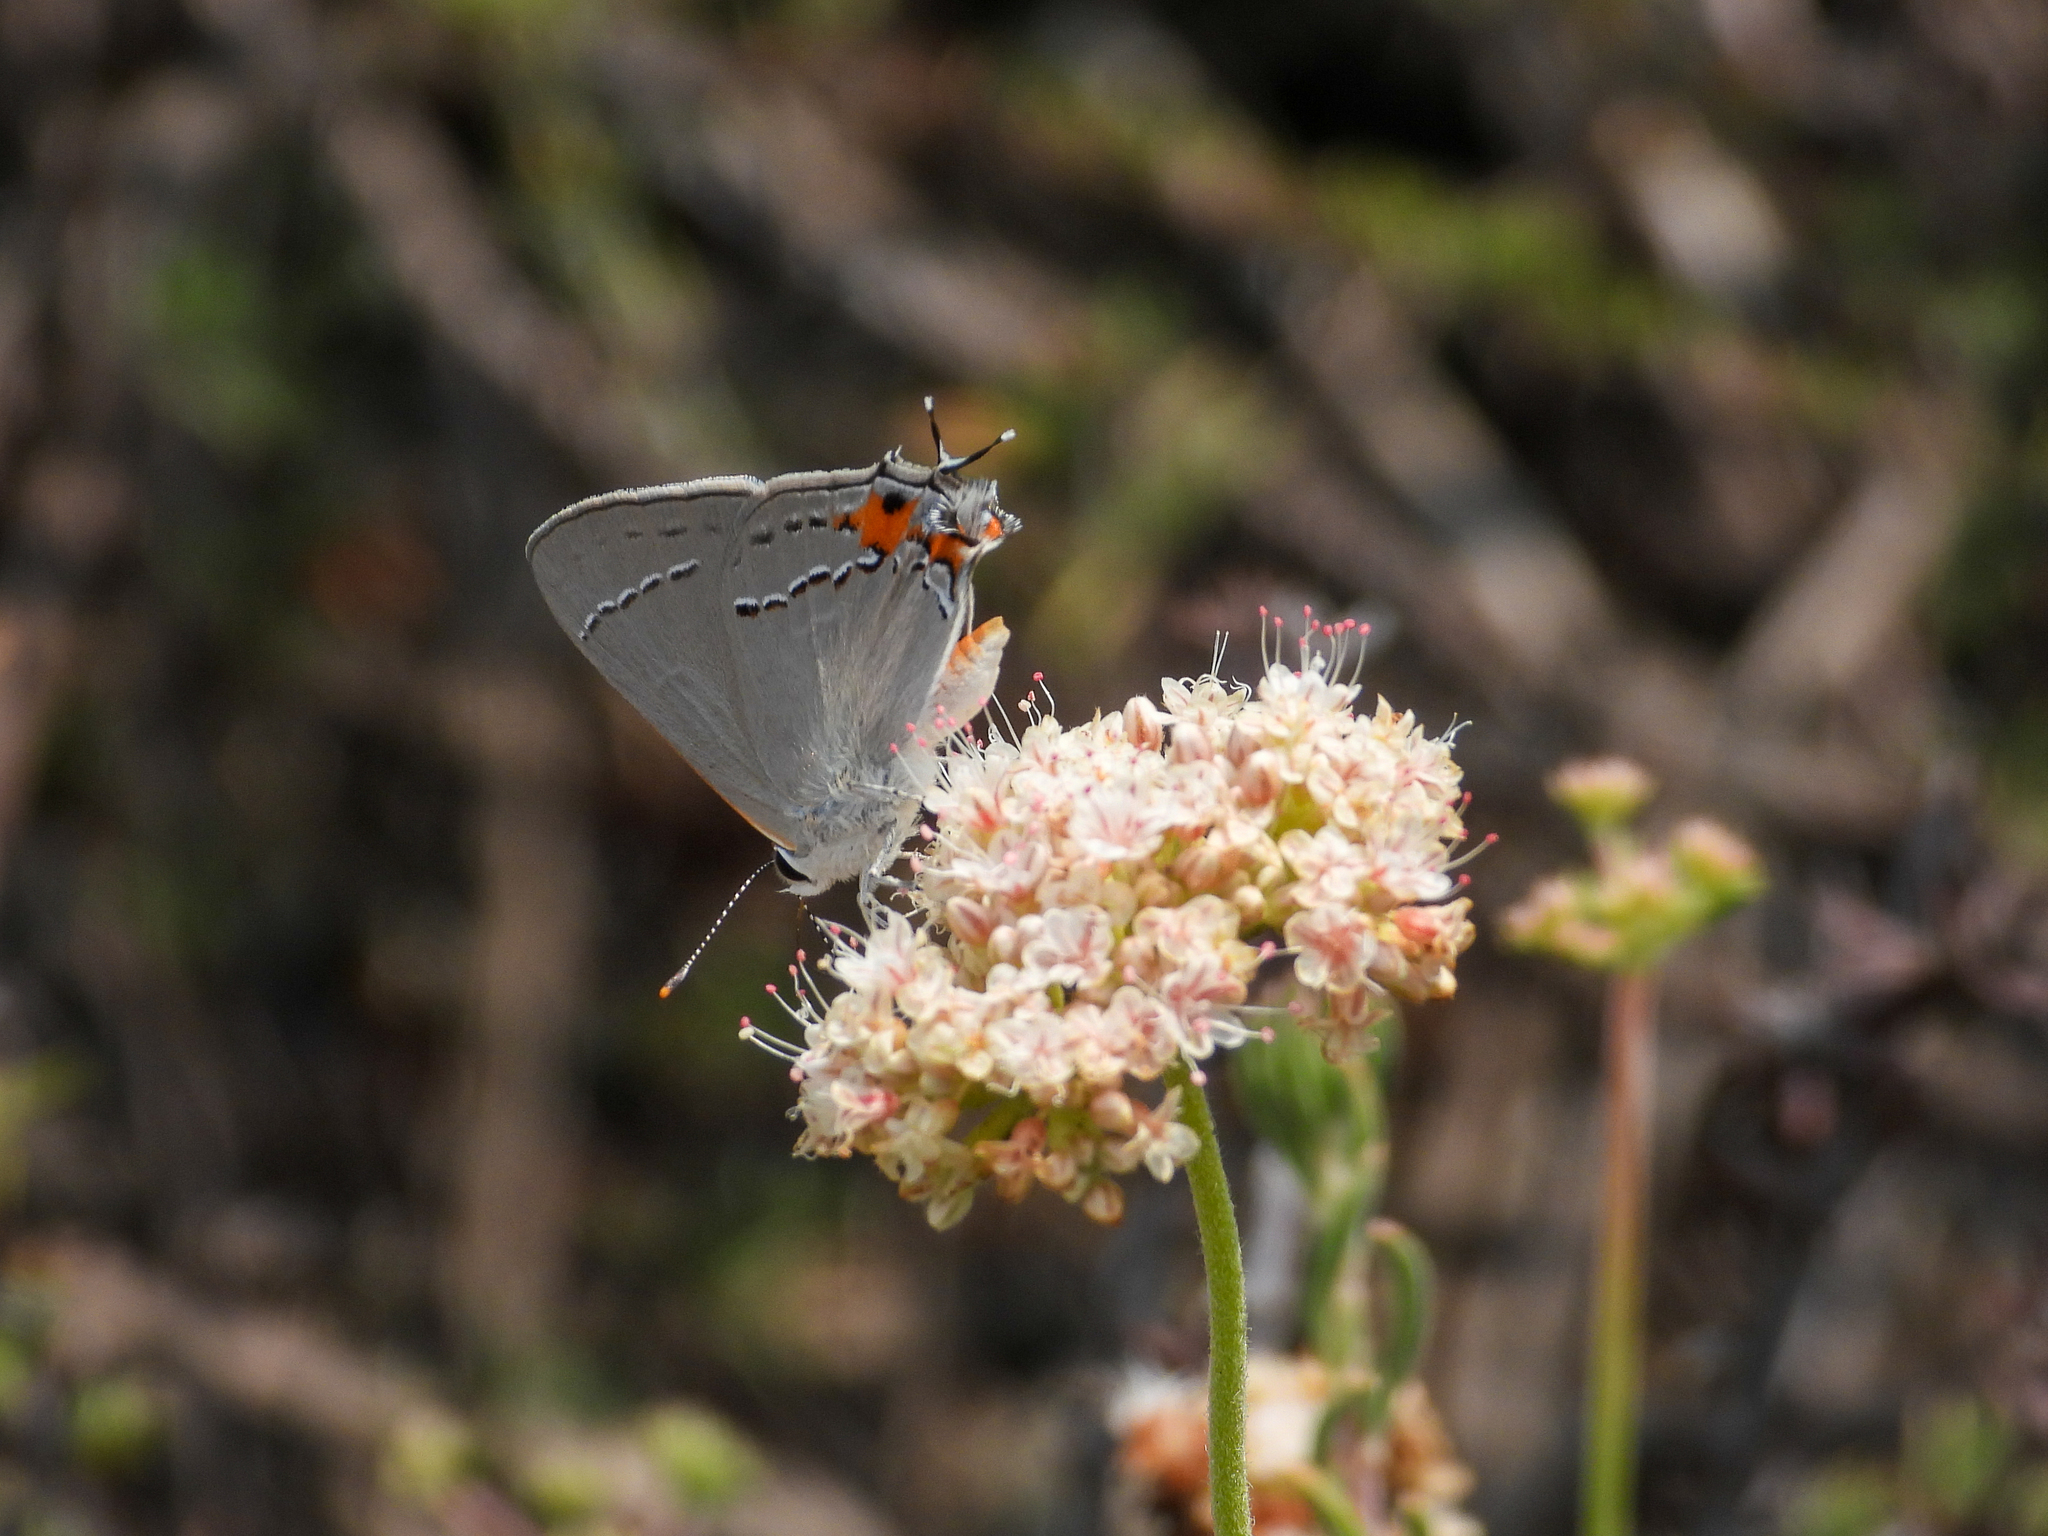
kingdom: Animalia
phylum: Arthropoda
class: Insecta
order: Lepidoptera
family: Lycaenidae
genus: Strymon
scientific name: Strymon melinus
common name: Gray hairstreak
